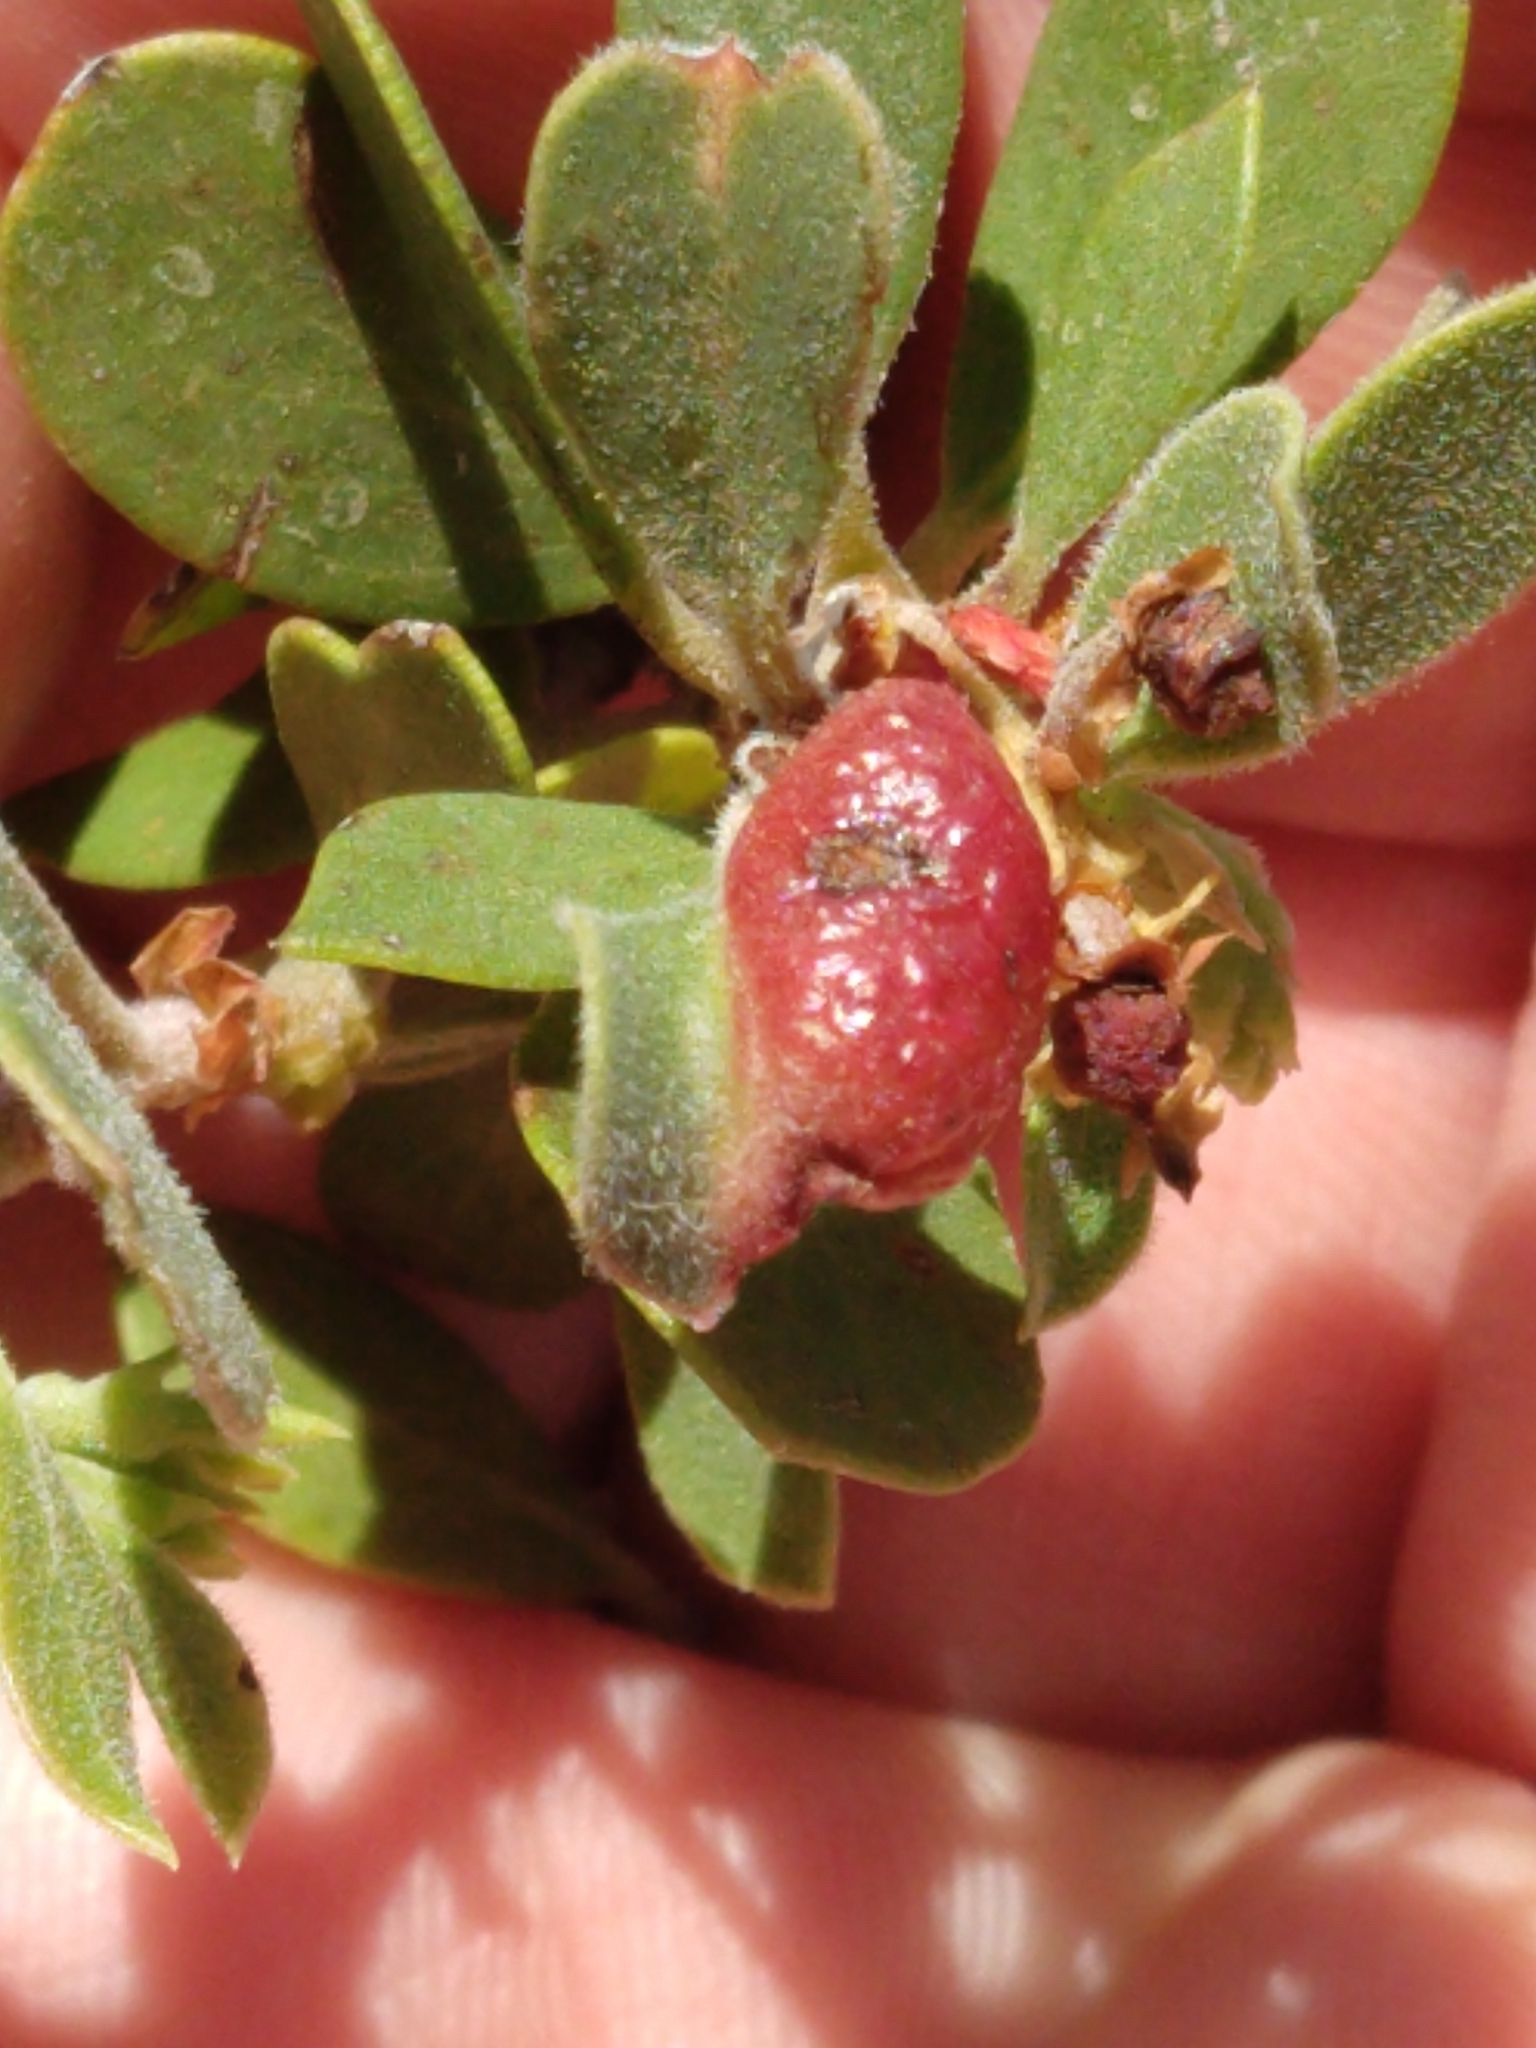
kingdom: Animalia
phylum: Arthropoda
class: Insecta
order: Hemiptera
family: Aphididae
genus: Tamalia
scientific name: Tamalia coweni
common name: Manzanita leafgall aphid
